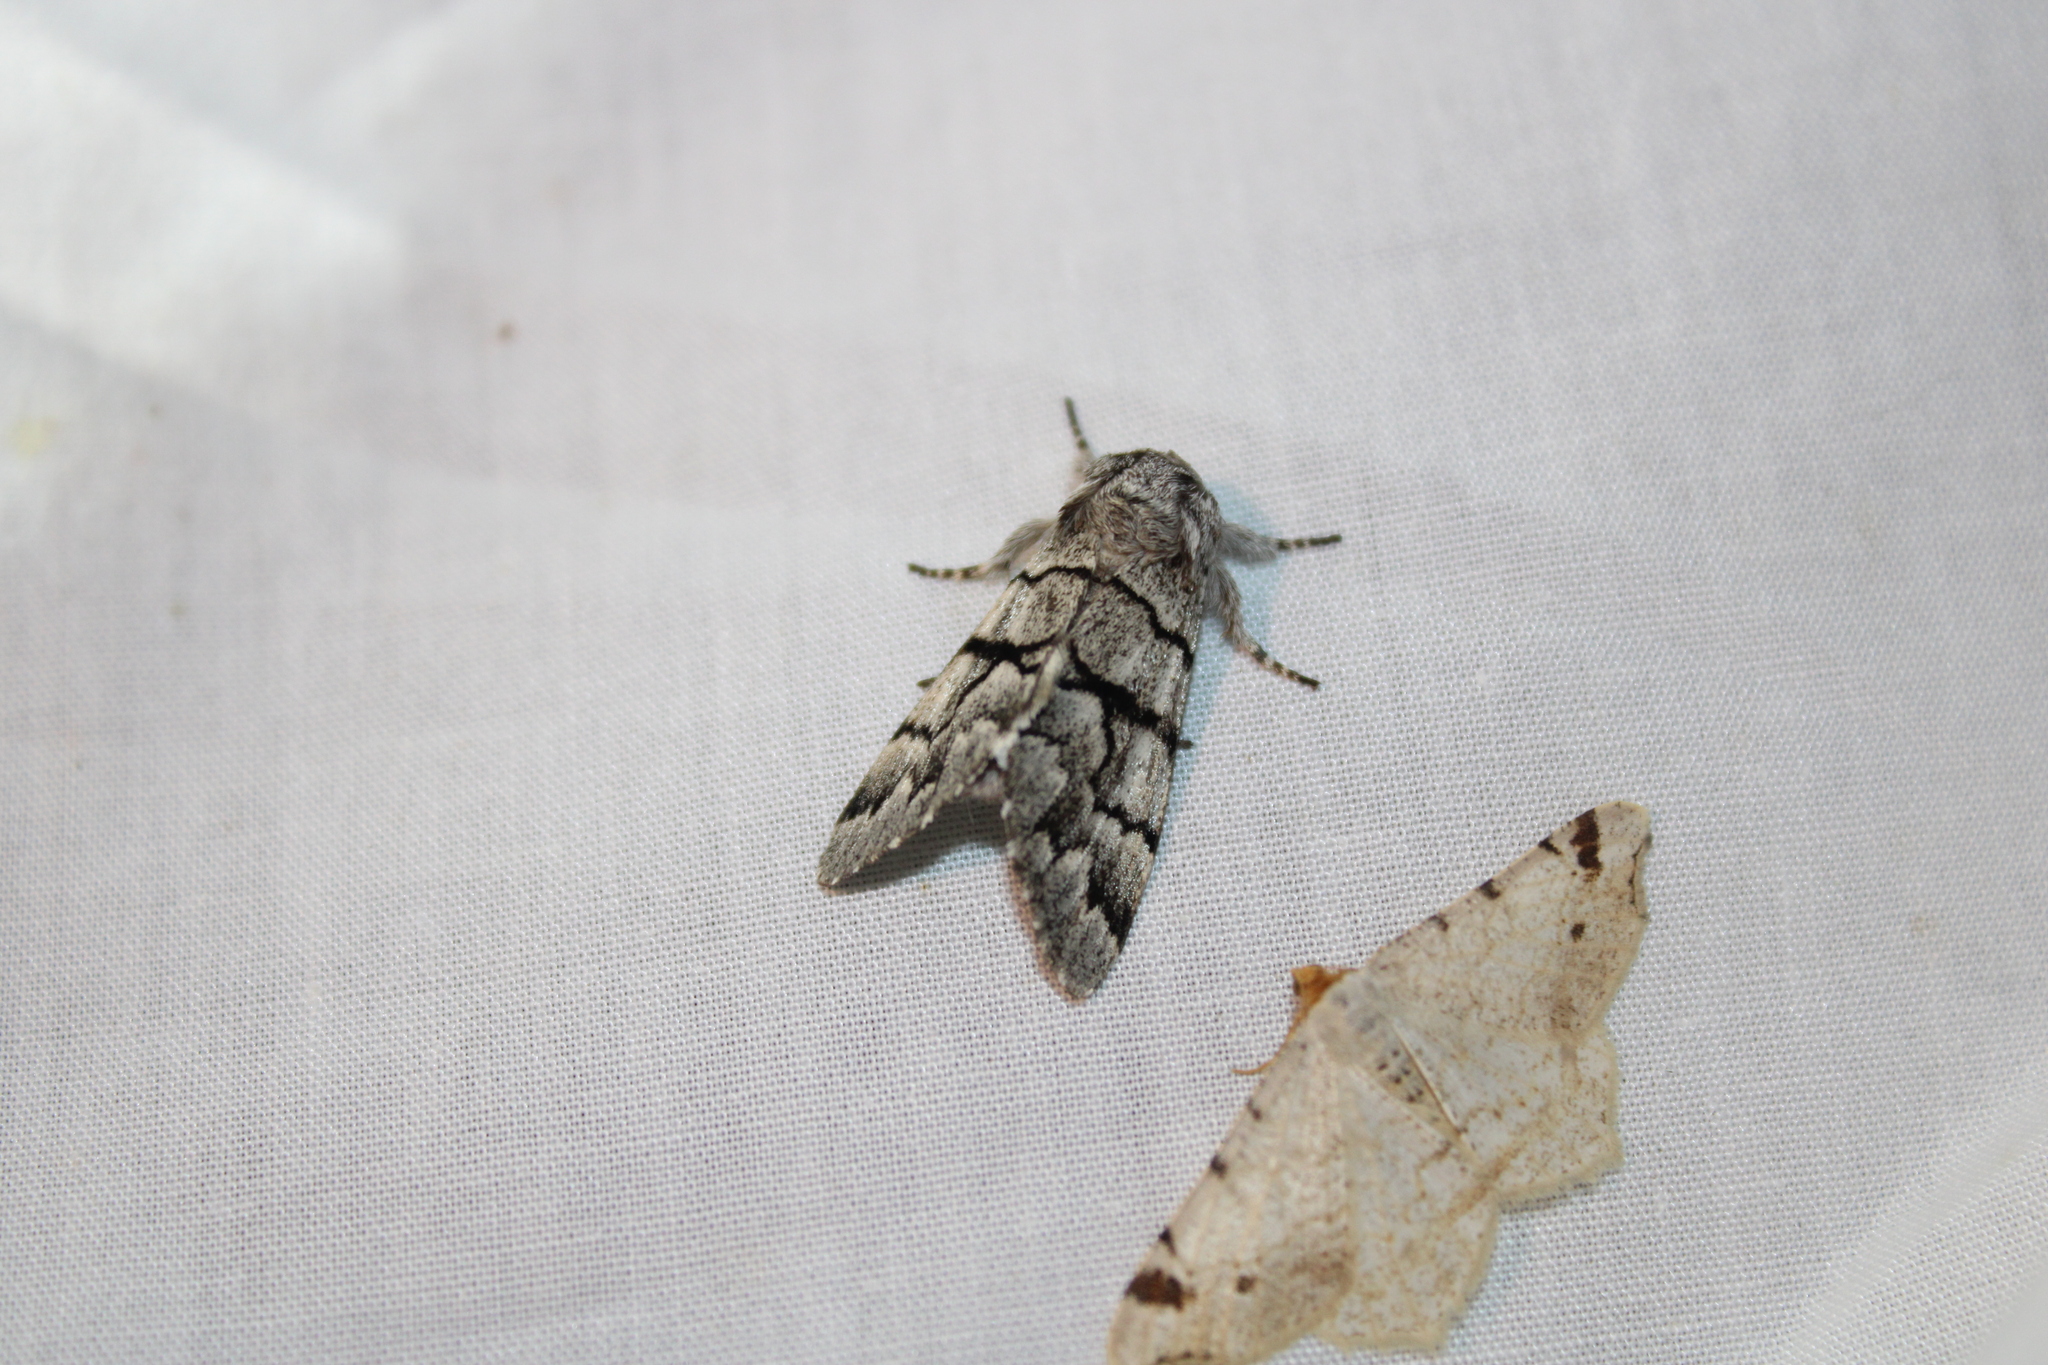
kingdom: Animalia
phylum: Arthropoda
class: Insecta
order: Lepidoptera
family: Noctuidae
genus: Panthea
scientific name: Panthea furcilla
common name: Eastern panthea moth
